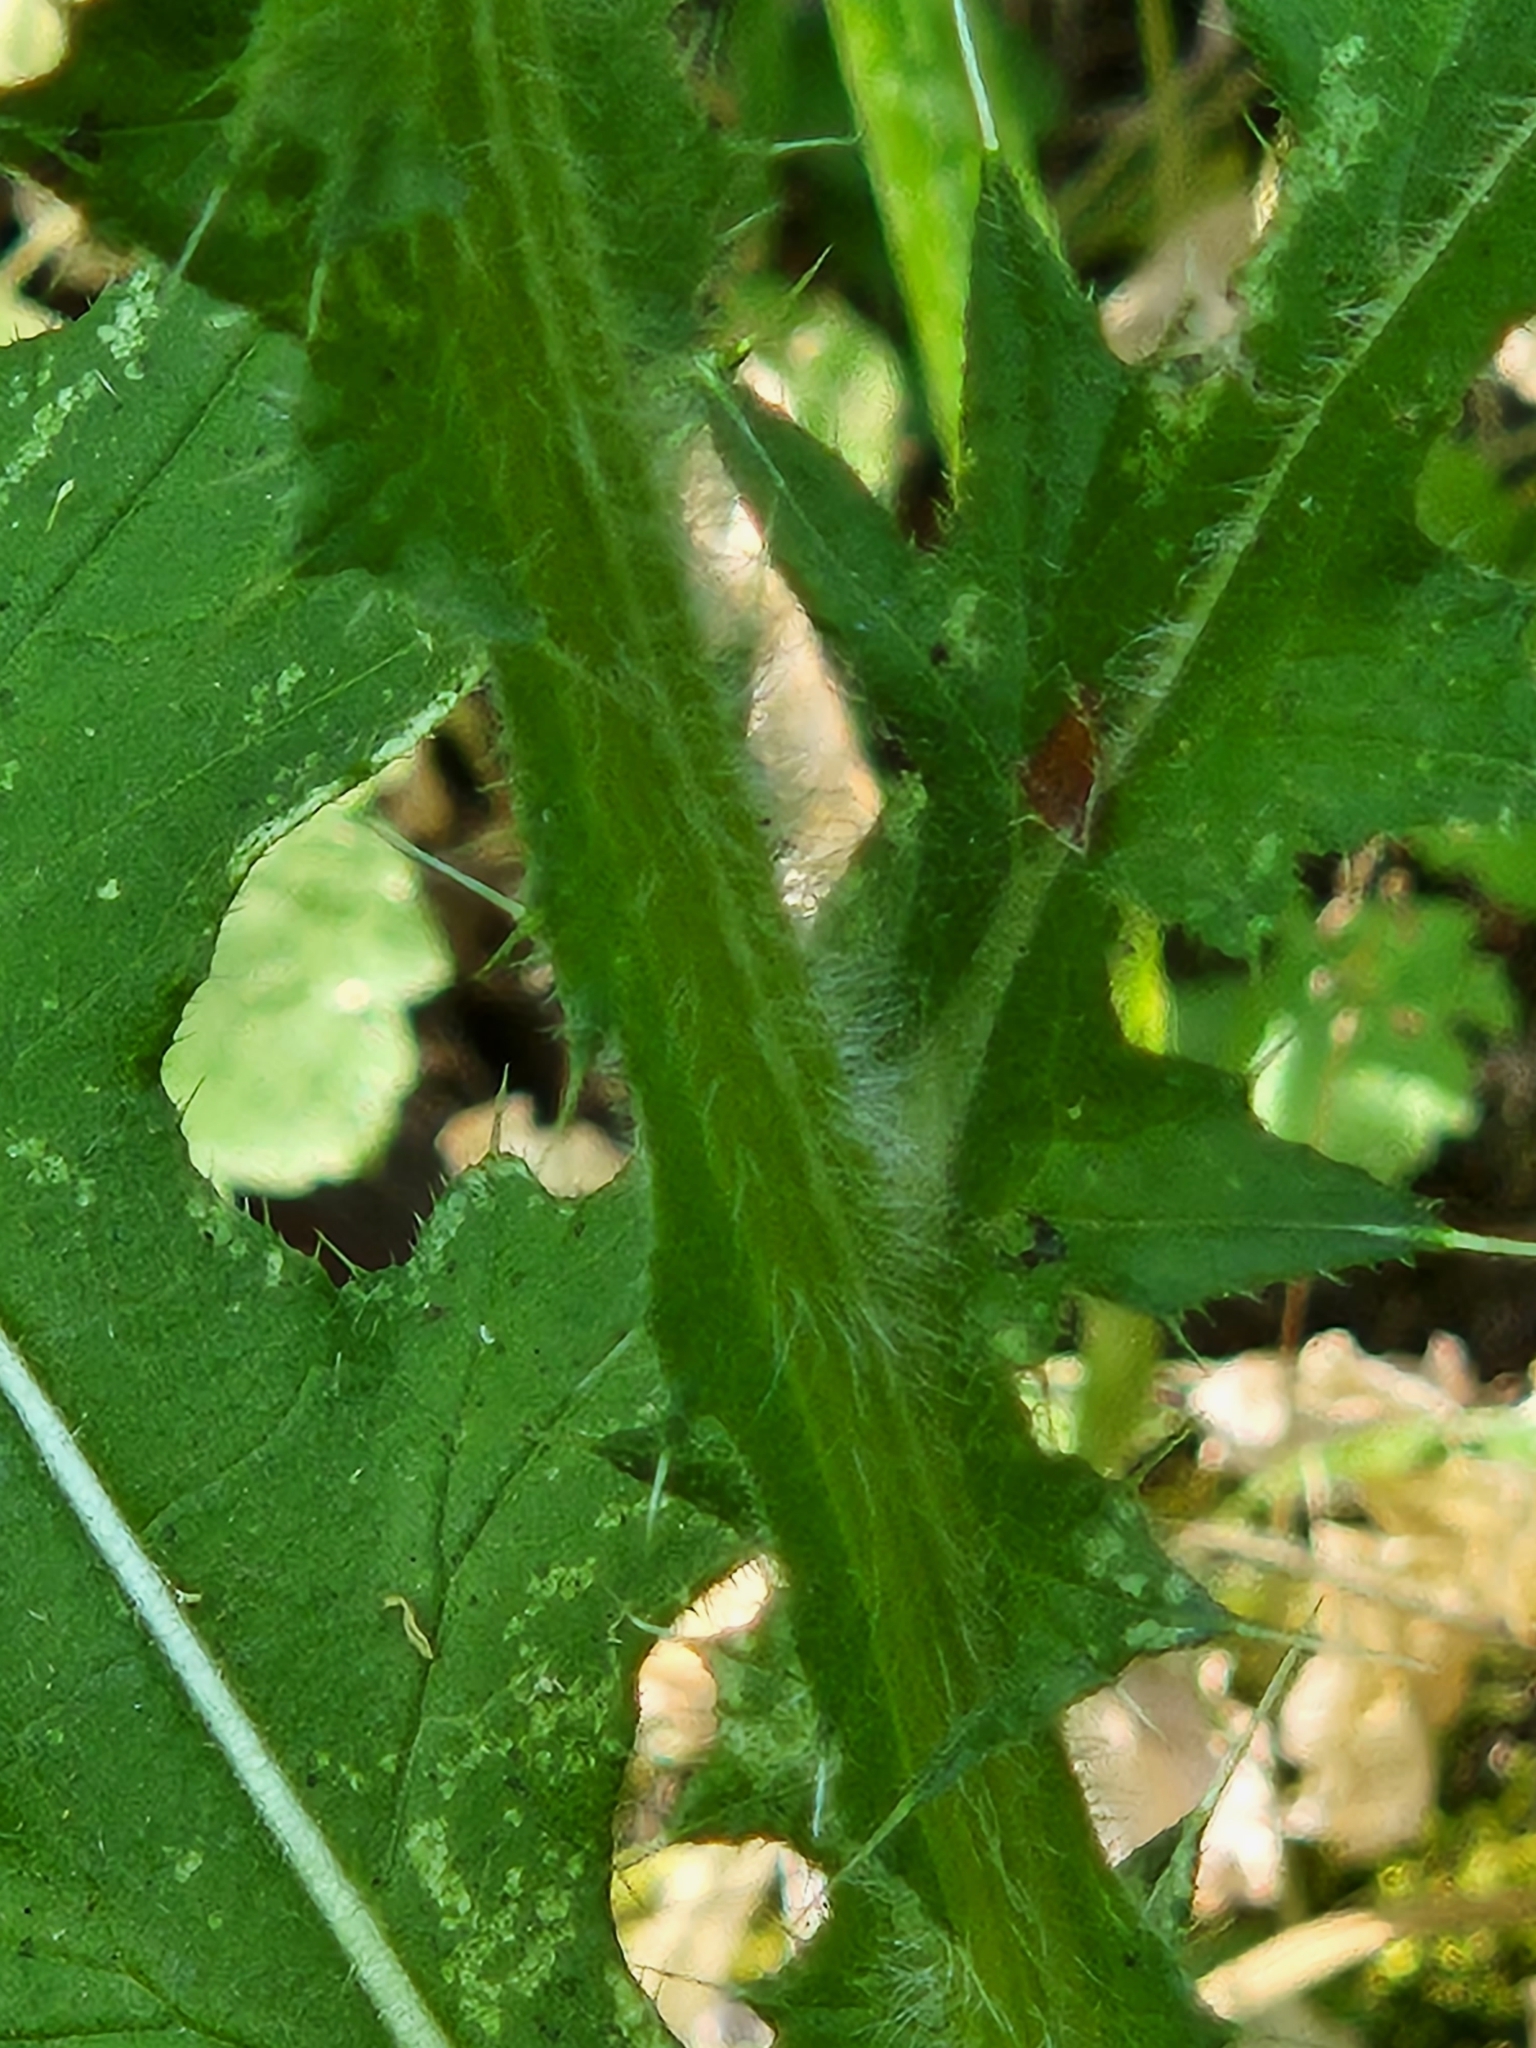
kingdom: Plantae
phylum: Tracheophyta
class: Magnoliopsida
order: Asterales
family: Asteraceae
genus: Cirsium
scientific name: Cirsium vulgare
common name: Bull thistle
